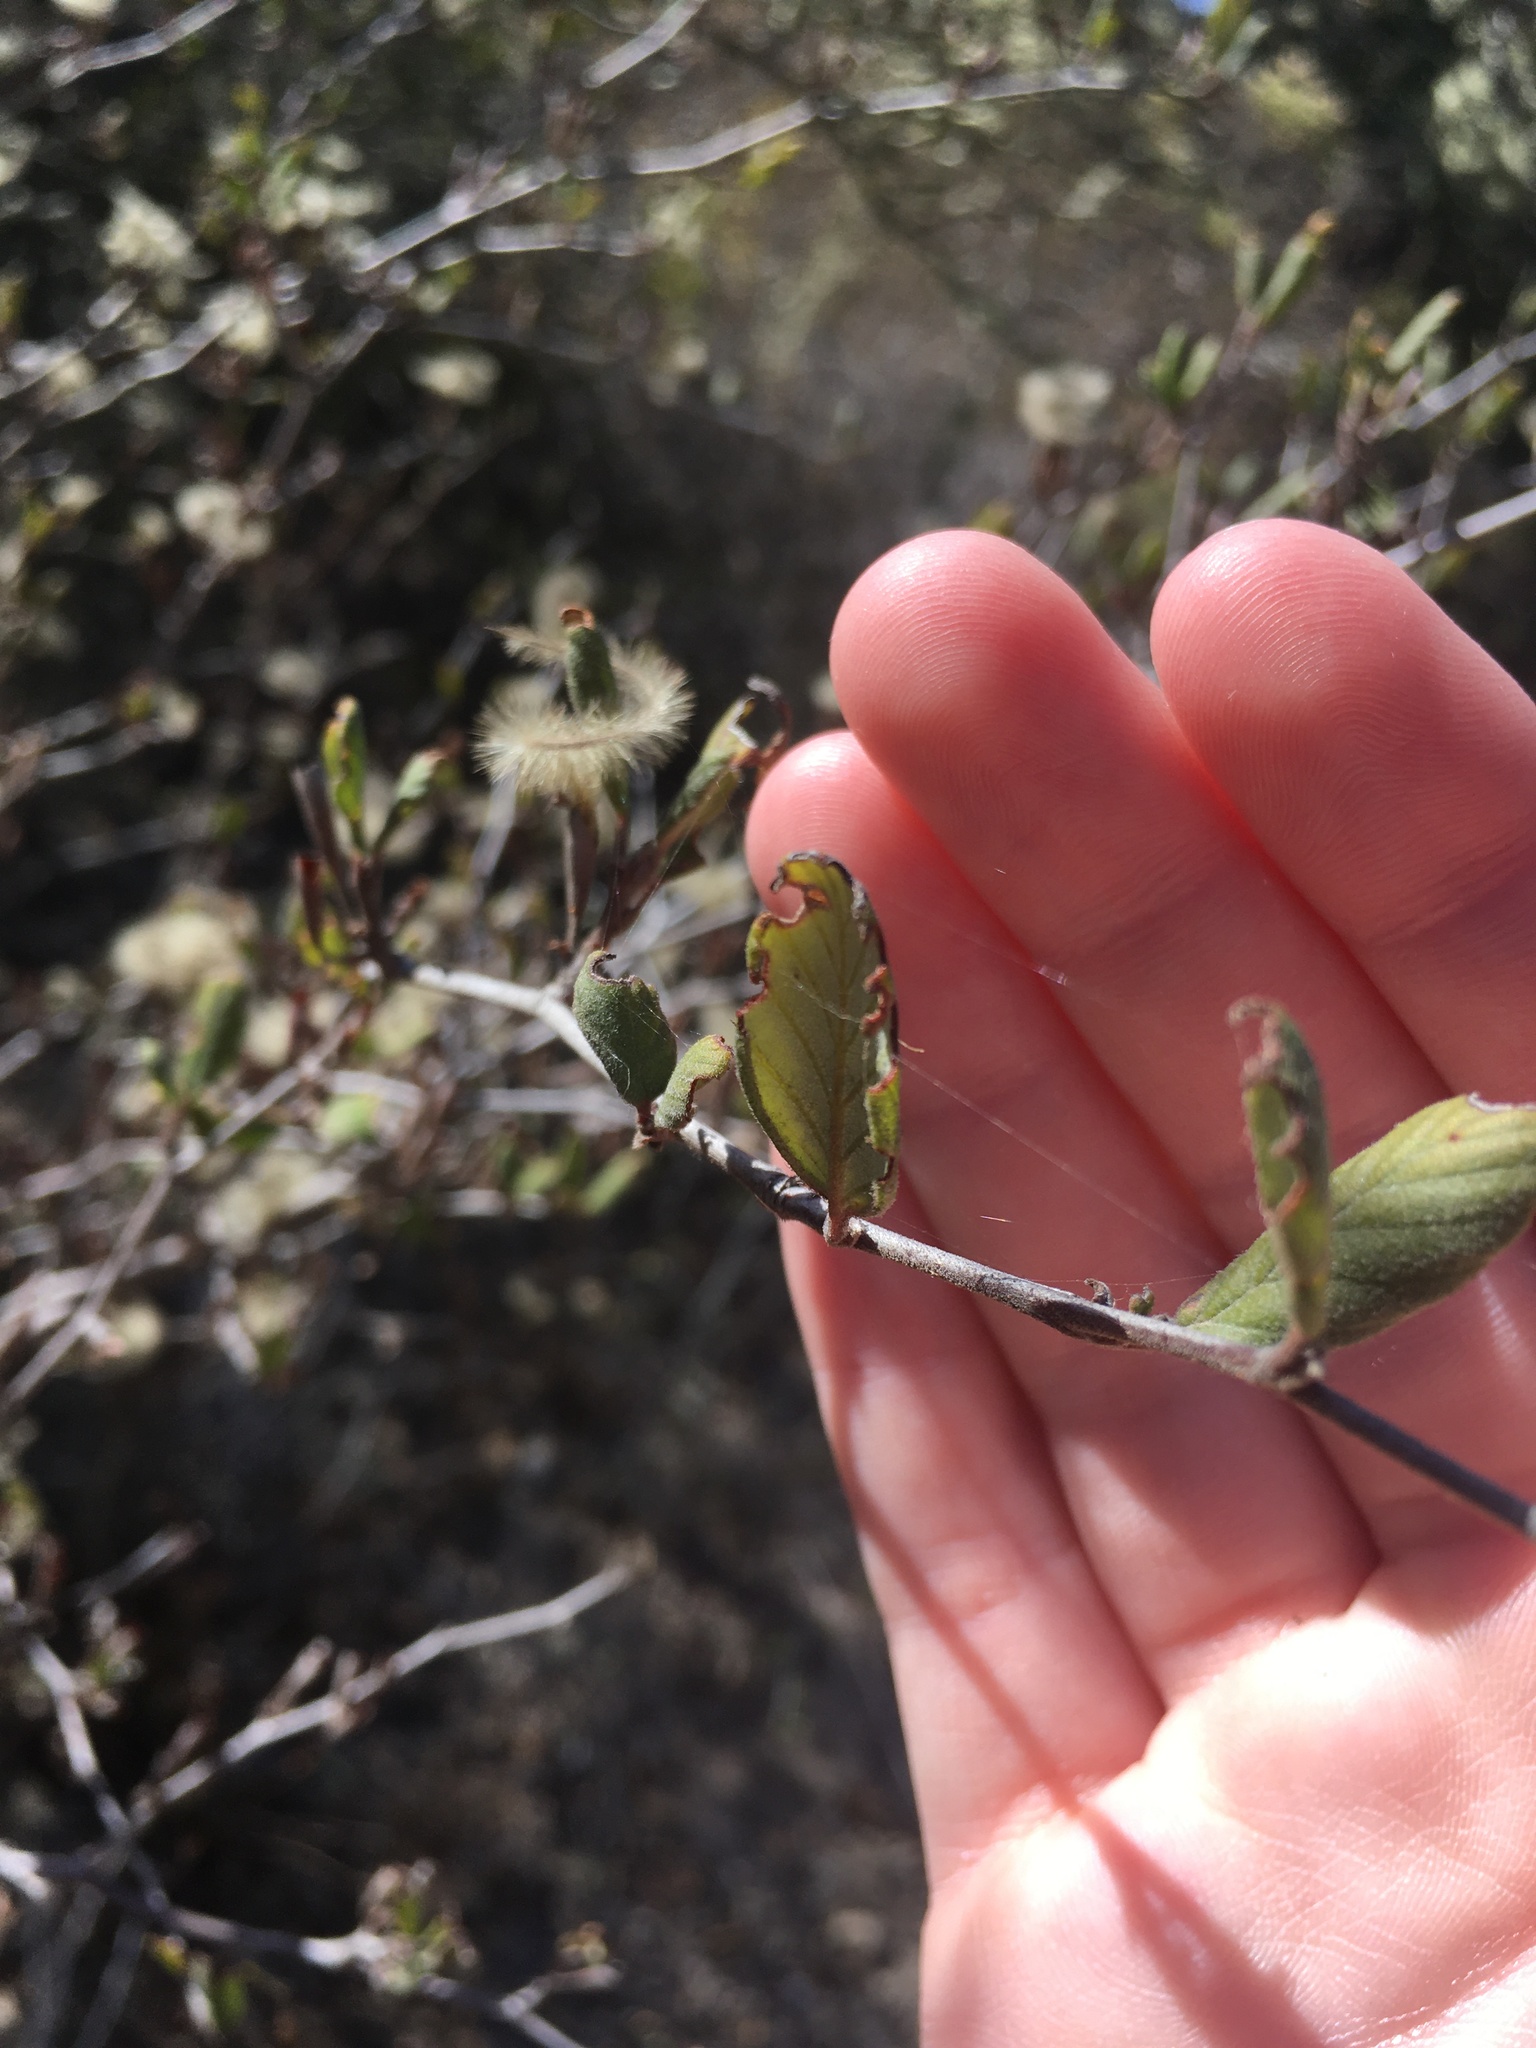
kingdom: Plantae
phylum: Tracheophyta
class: Magnoliopsida
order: Rosales
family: Rosaceae
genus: Cercocarpus
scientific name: Cercocarpus betuloides
